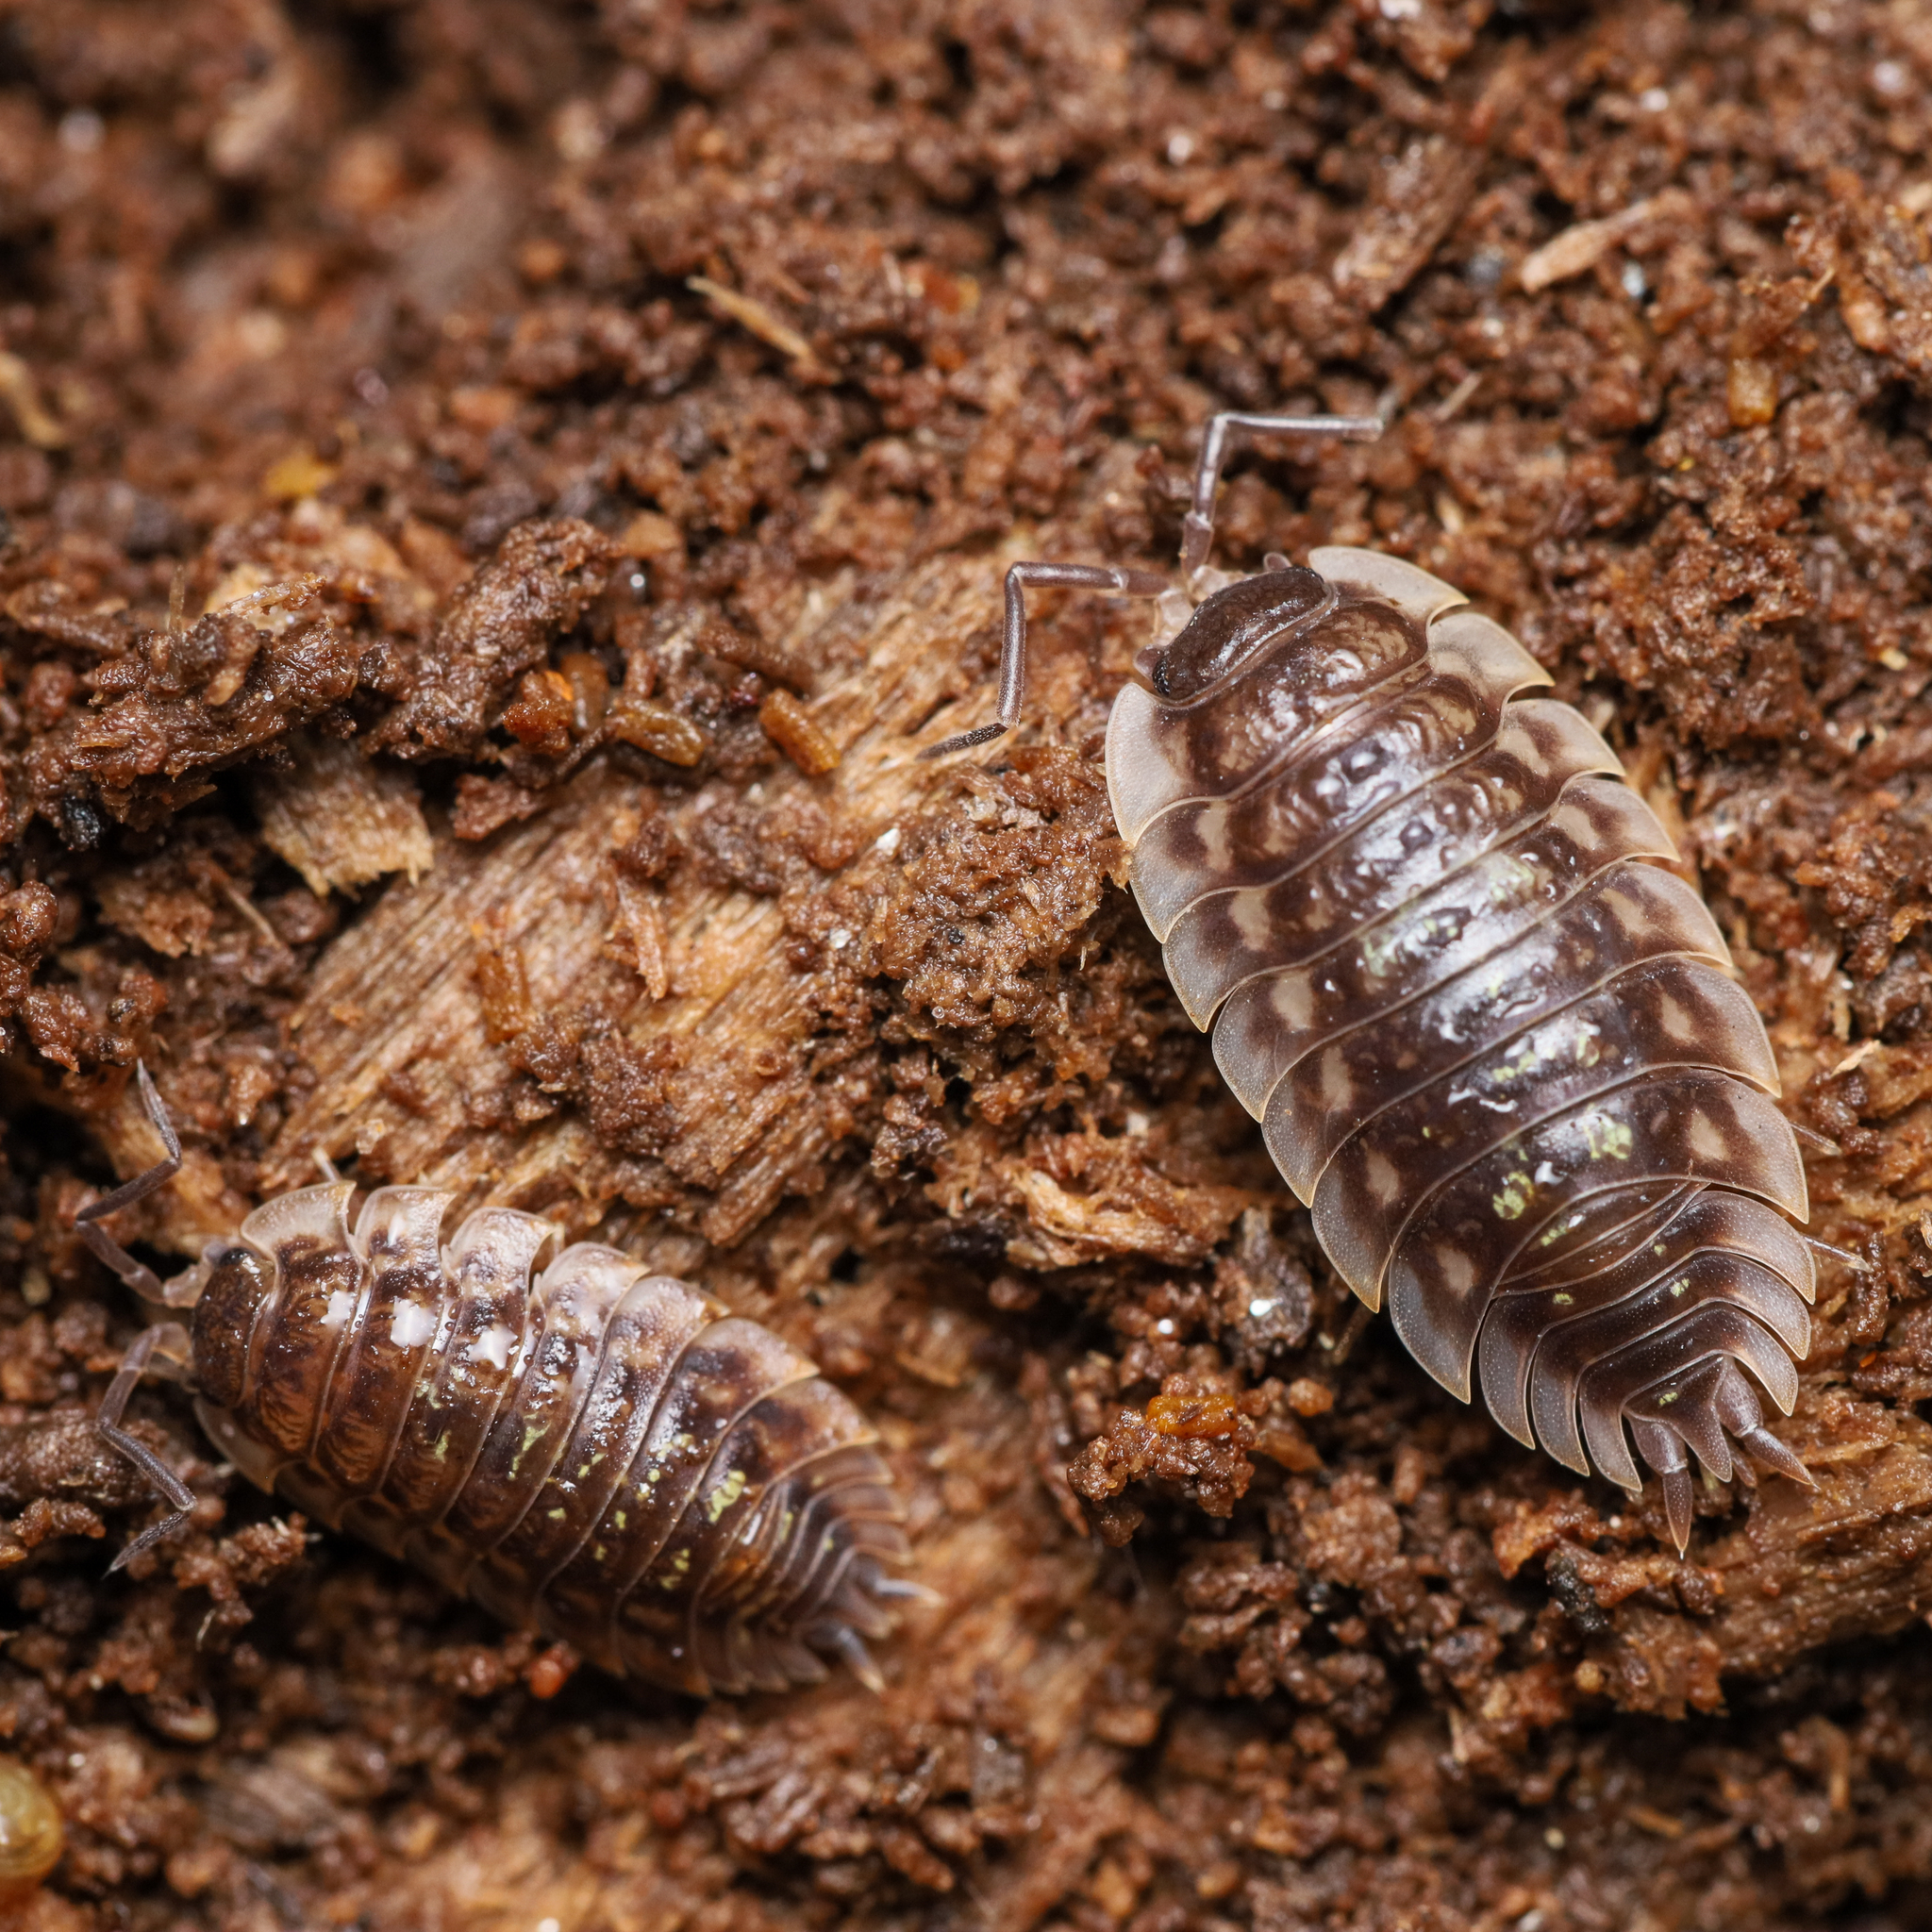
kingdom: Animalia
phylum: Arthropoda
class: Malacostraca
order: Isopoda
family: Oniscidae
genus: Oniscus
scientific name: Oniscus asellus
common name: Common shiny woodlouse
